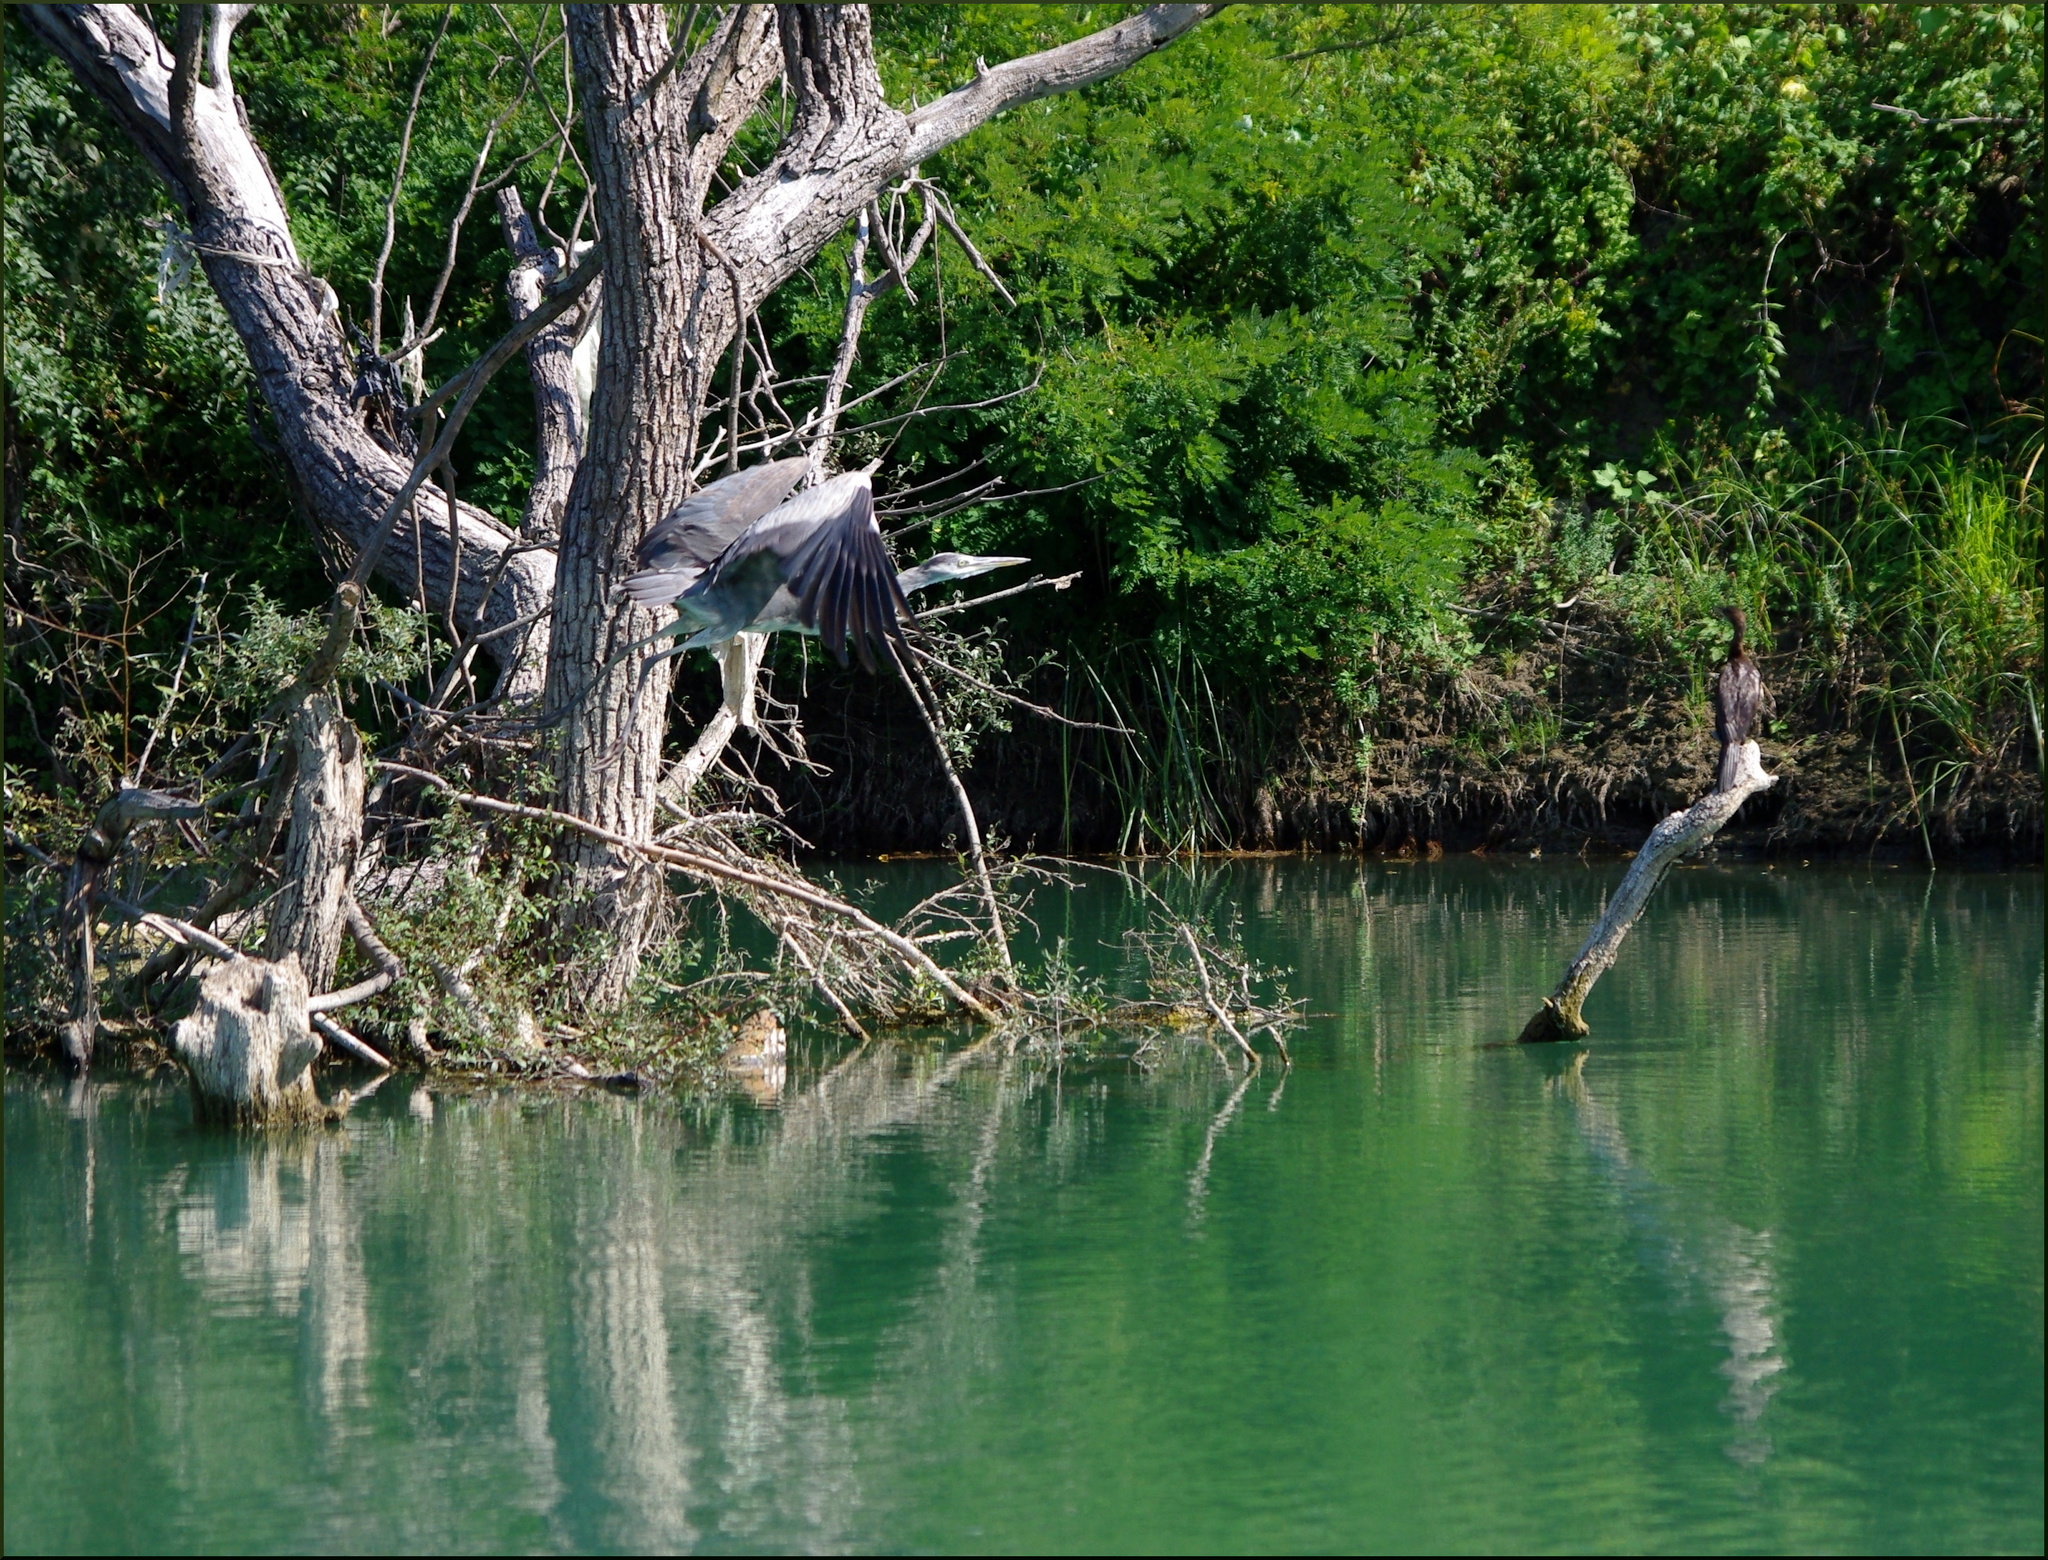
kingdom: Animalia
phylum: Chordata
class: Aves
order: Suliformes
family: Phalacrocoracidae
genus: Microcarbo
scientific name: Microcarbo pygmaeus
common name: Pygmy cormorant
